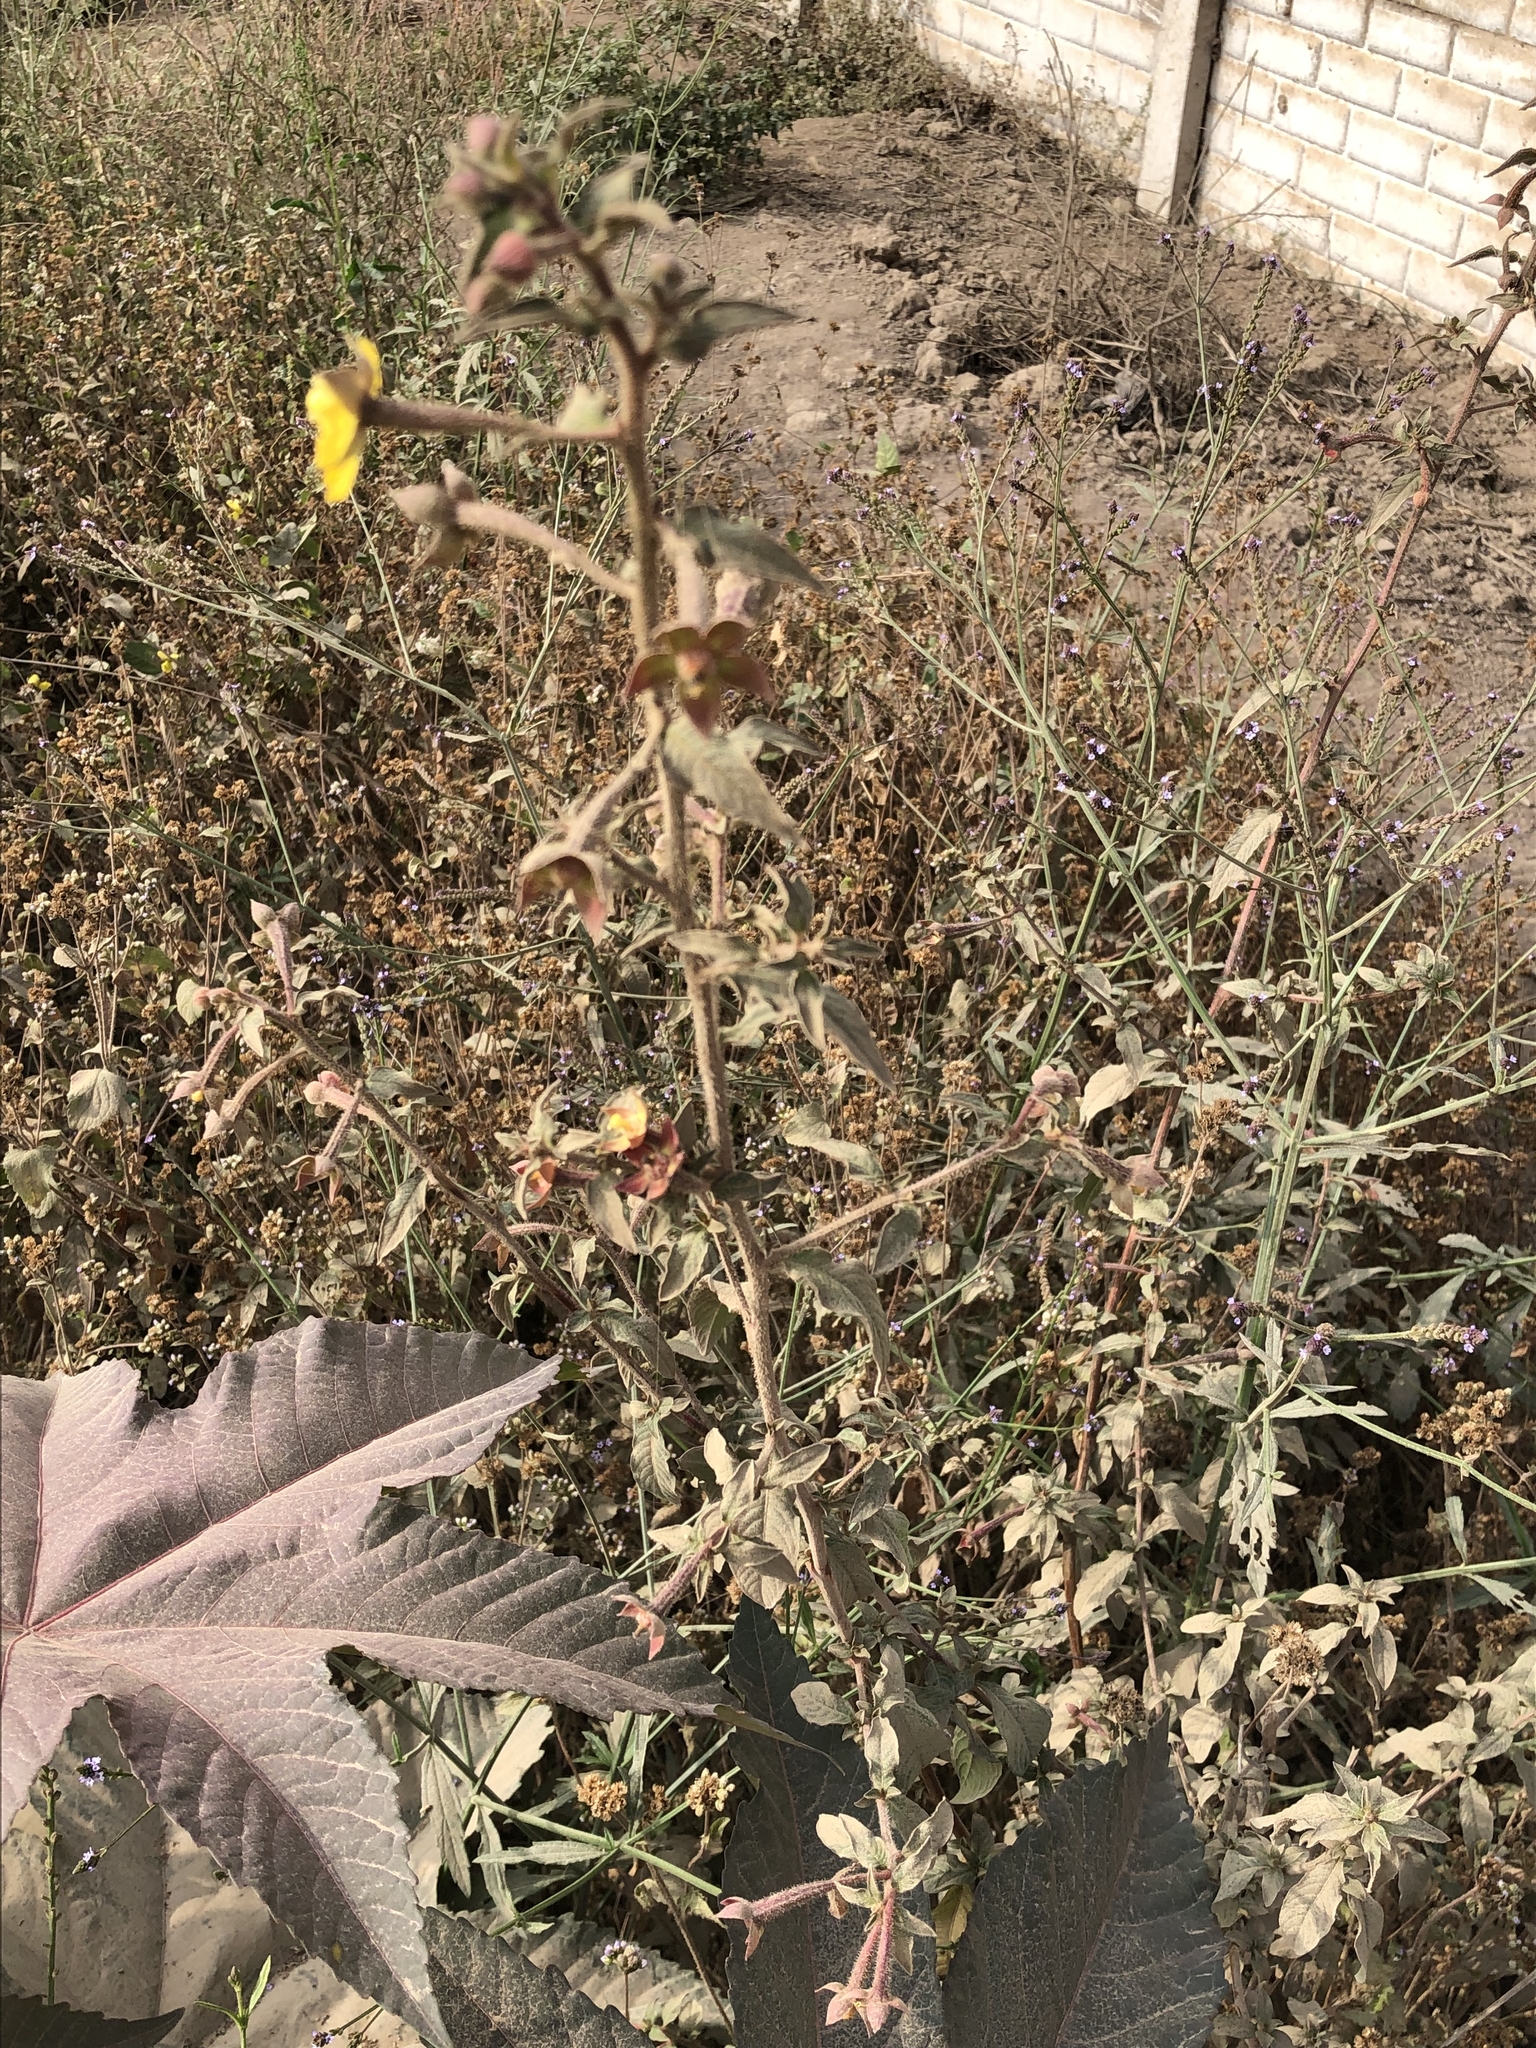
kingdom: Plantae
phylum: Tracheophyta
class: Magnoliopsida
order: Myrtales
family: Onagraceae
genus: Ludwigia
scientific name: Ludwigia octovalvis
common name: Water-primrose
